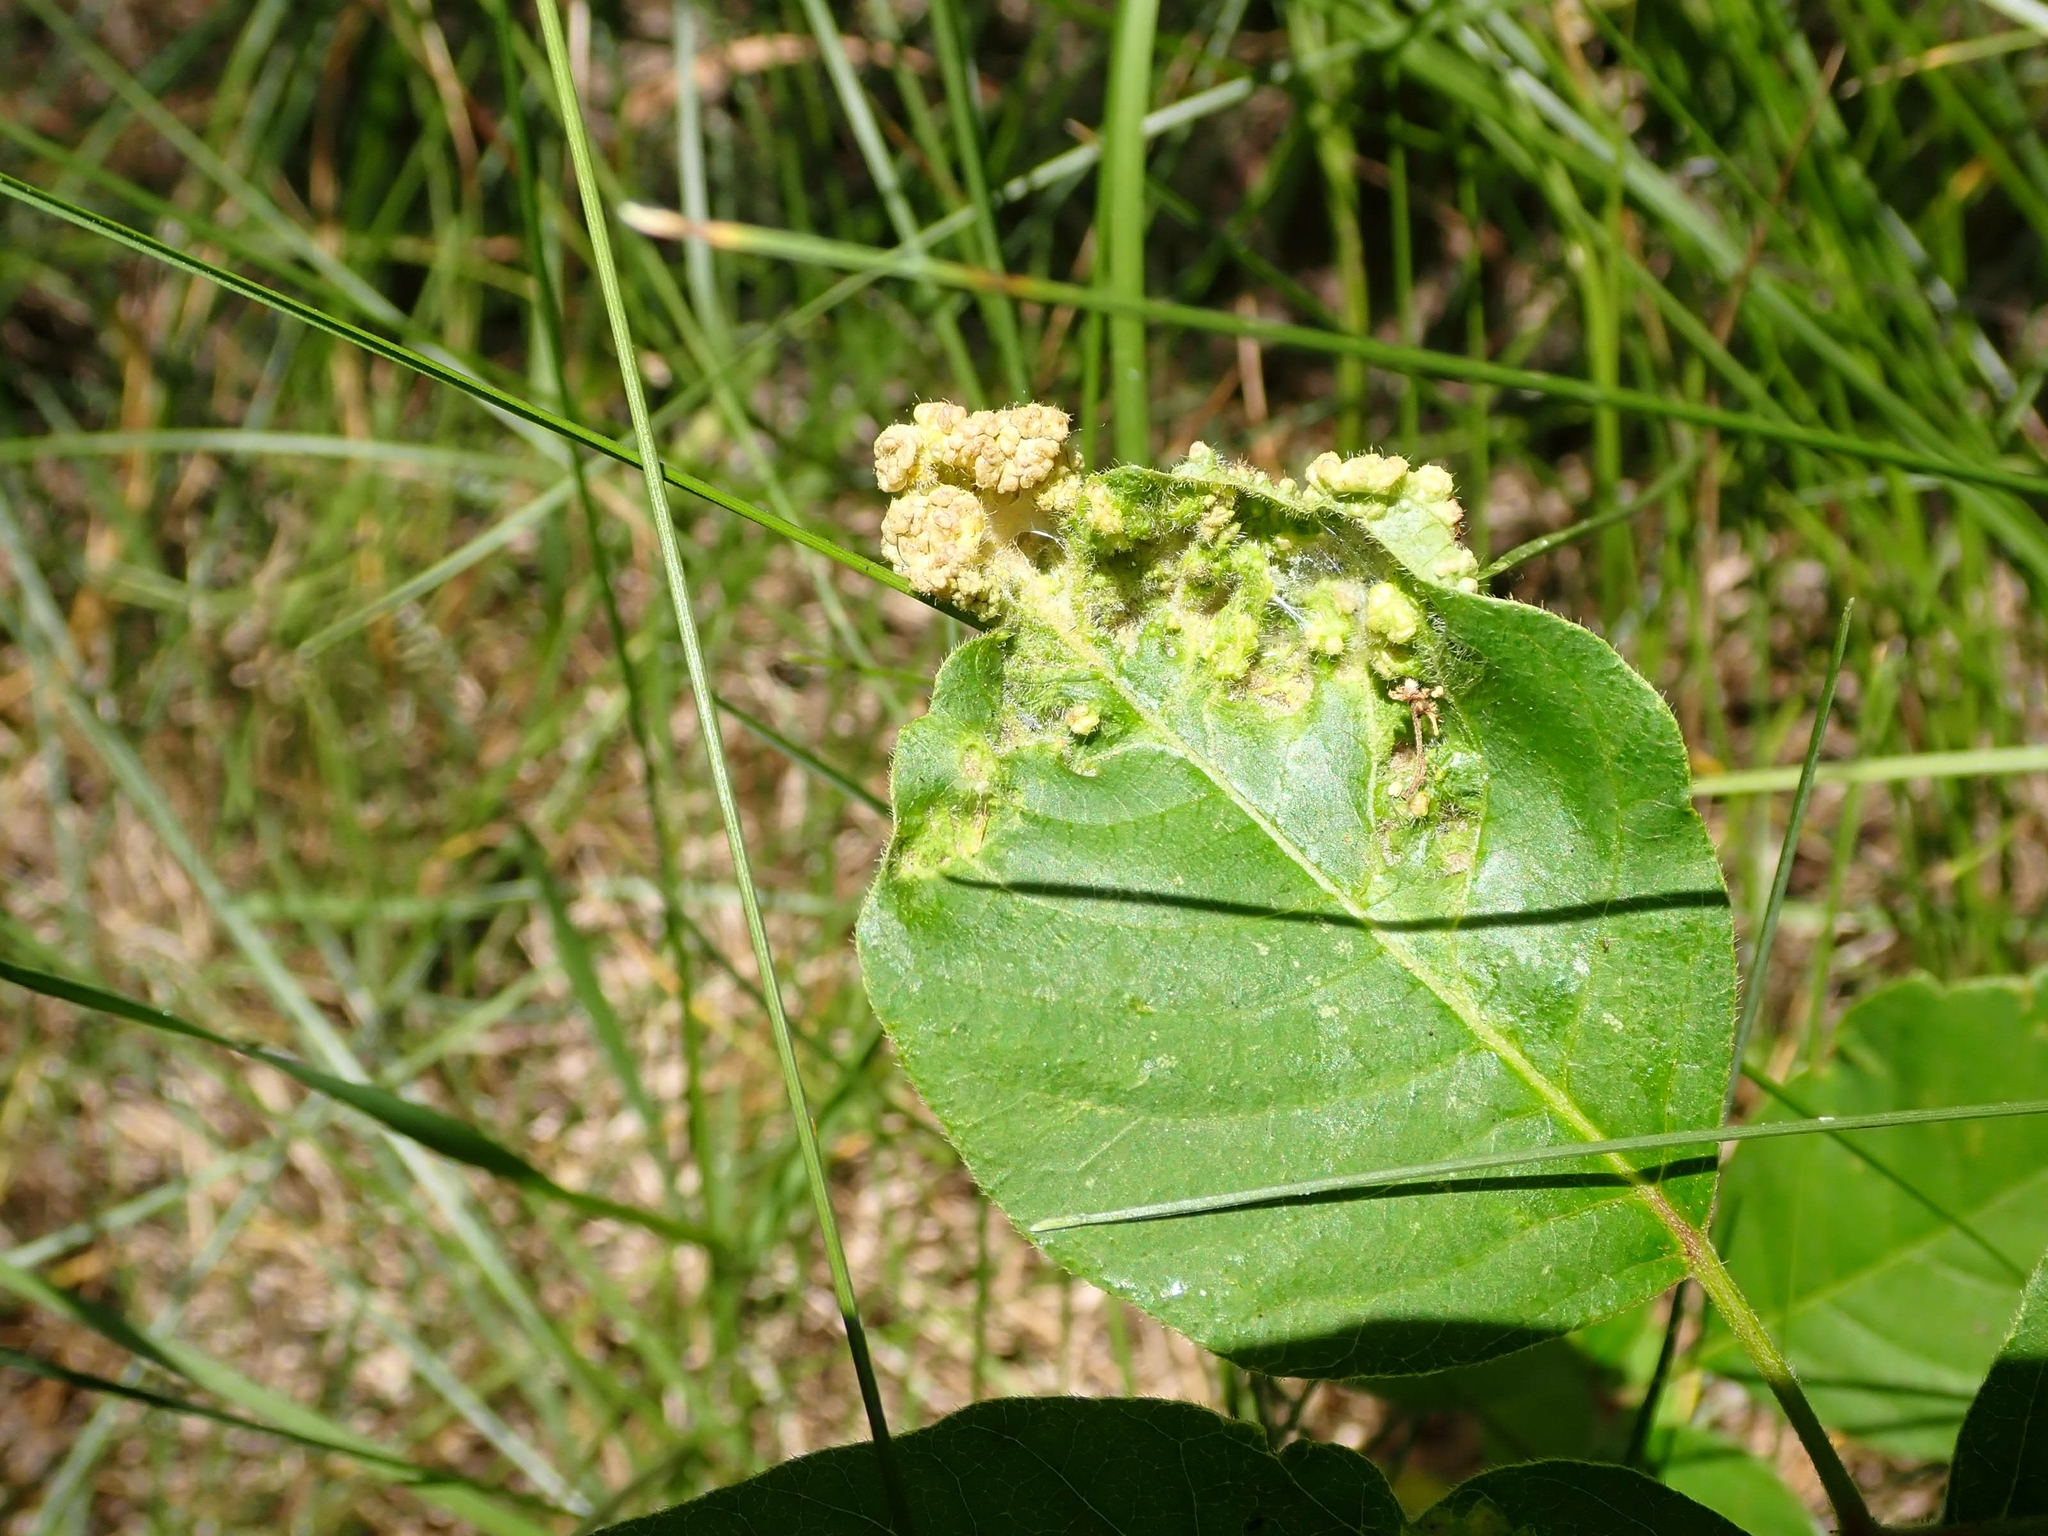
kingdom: Animalia
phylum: Arthropoda
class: Arachnida
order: Trombidiformes
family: Eriophyidae
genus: Aculops
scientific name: Aculops
